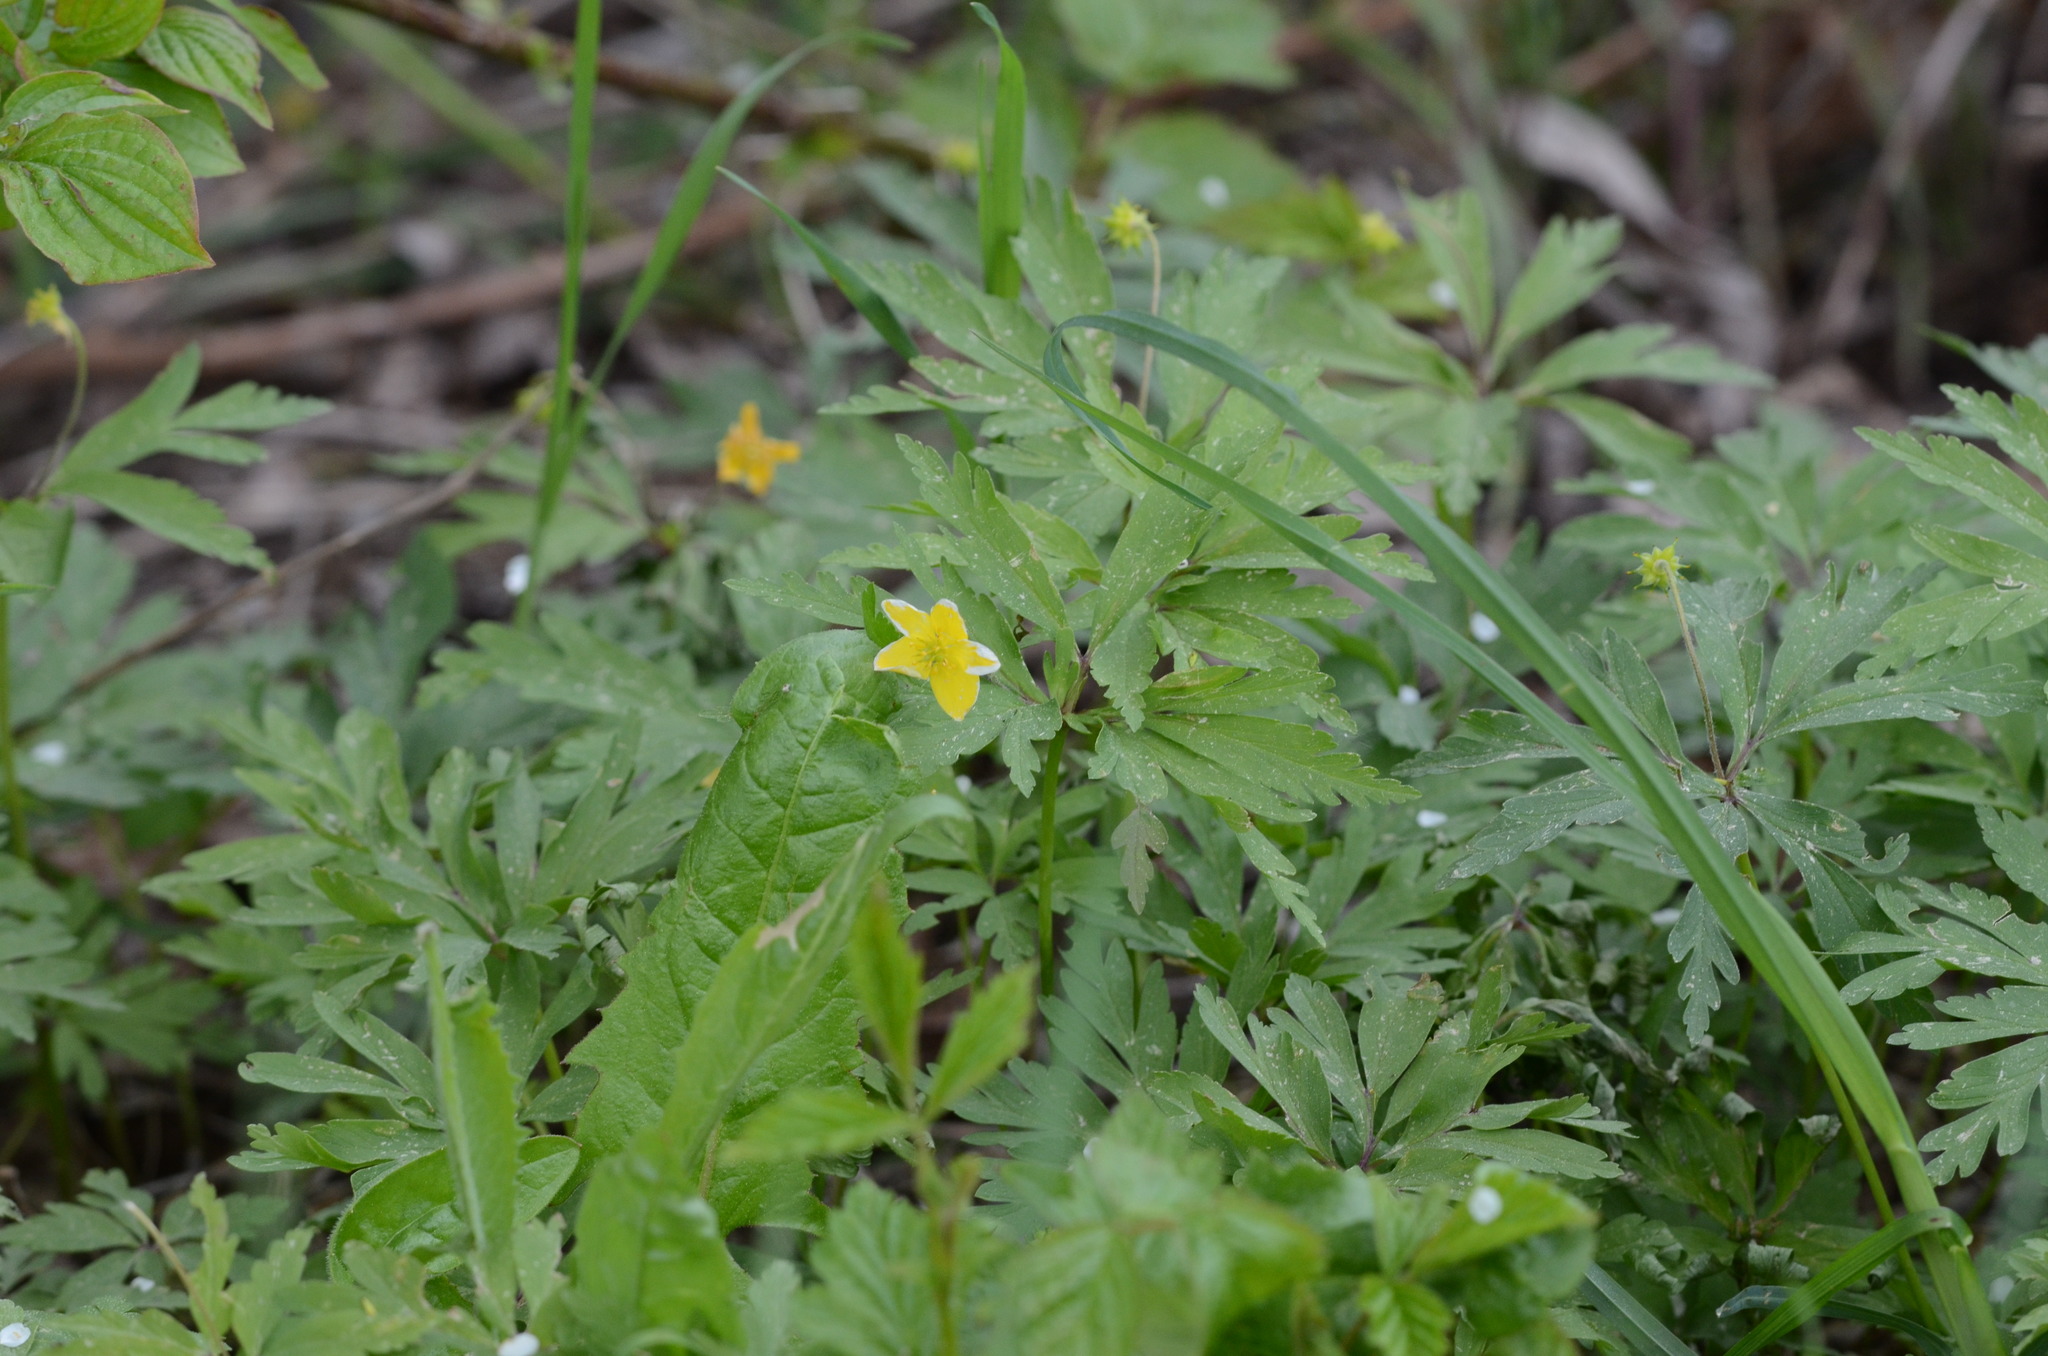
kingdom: Plantae
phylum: Tracheophyta
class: Magnoliopsida
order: Ranunculales
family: Ranunculaceae
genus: Anemone
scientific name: Anemone ranunculoides
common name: Yellow anemone
